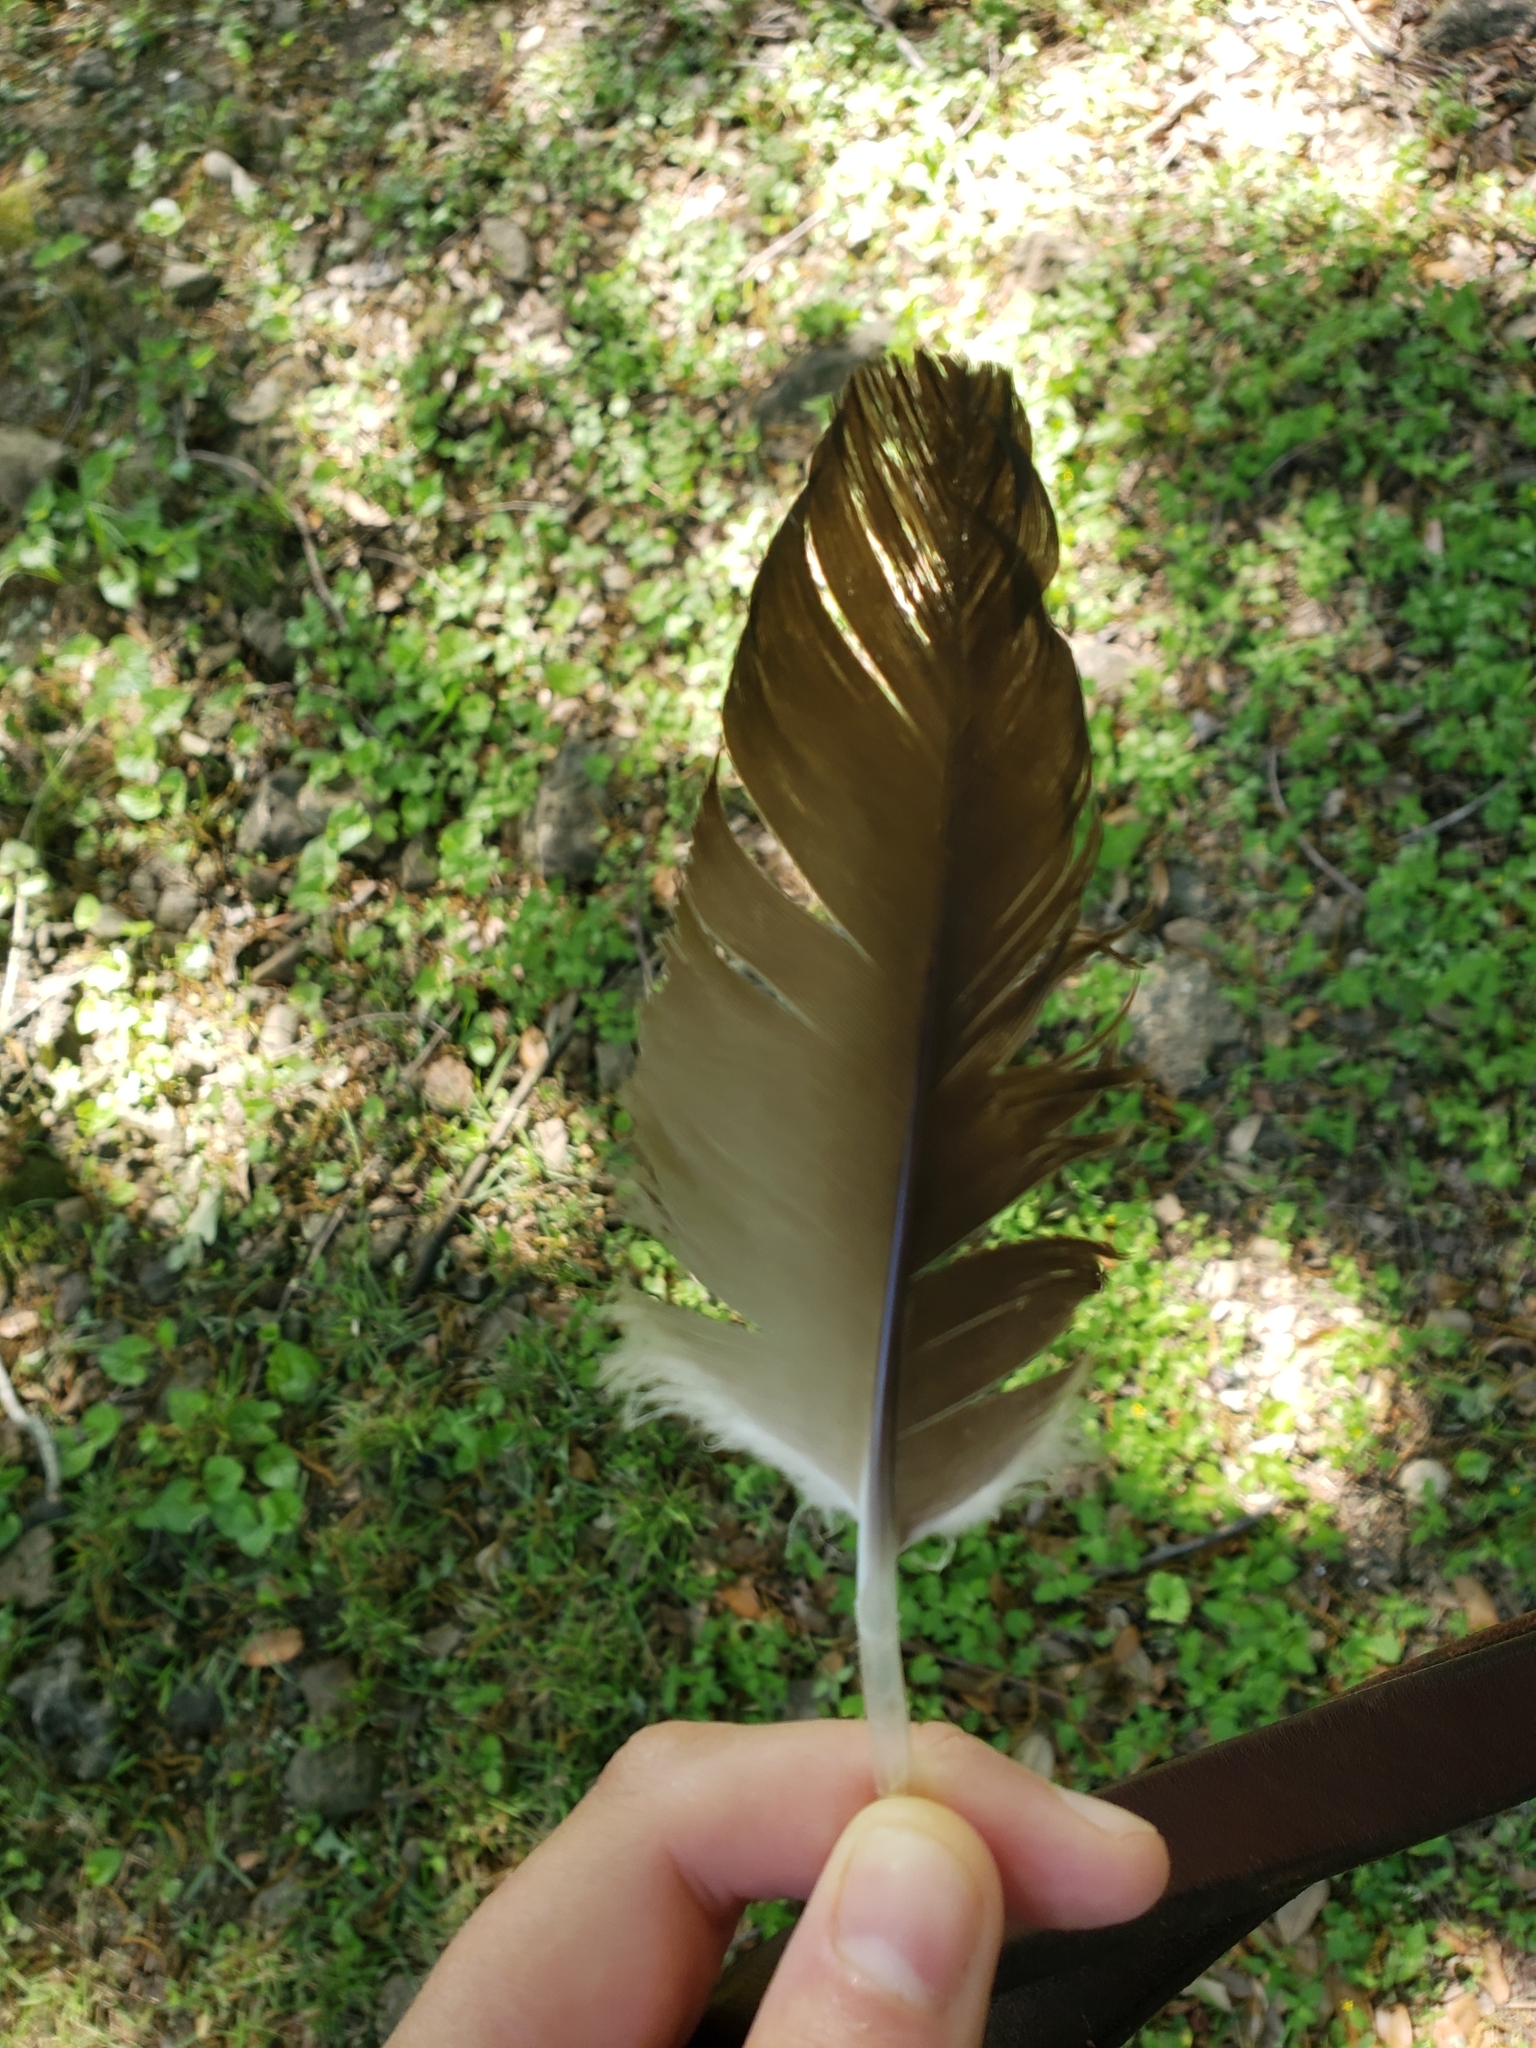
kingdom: Animalia
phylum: Chordata
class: Aves
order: Accipitriformes
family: Cathartidae
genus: Cathartes
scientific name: Cathartes aura
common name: Turkey vulture
